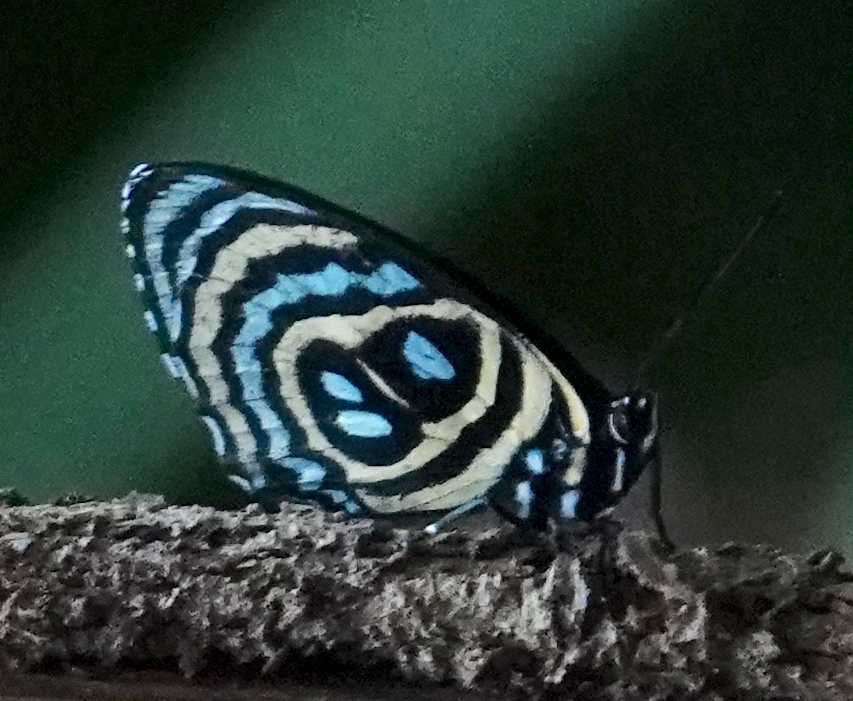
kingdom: Animalia
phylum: Arthropoda
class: Insecta
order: Lepidoptera
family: Nymphalidae
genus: Catagramma
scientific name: Catagramma
